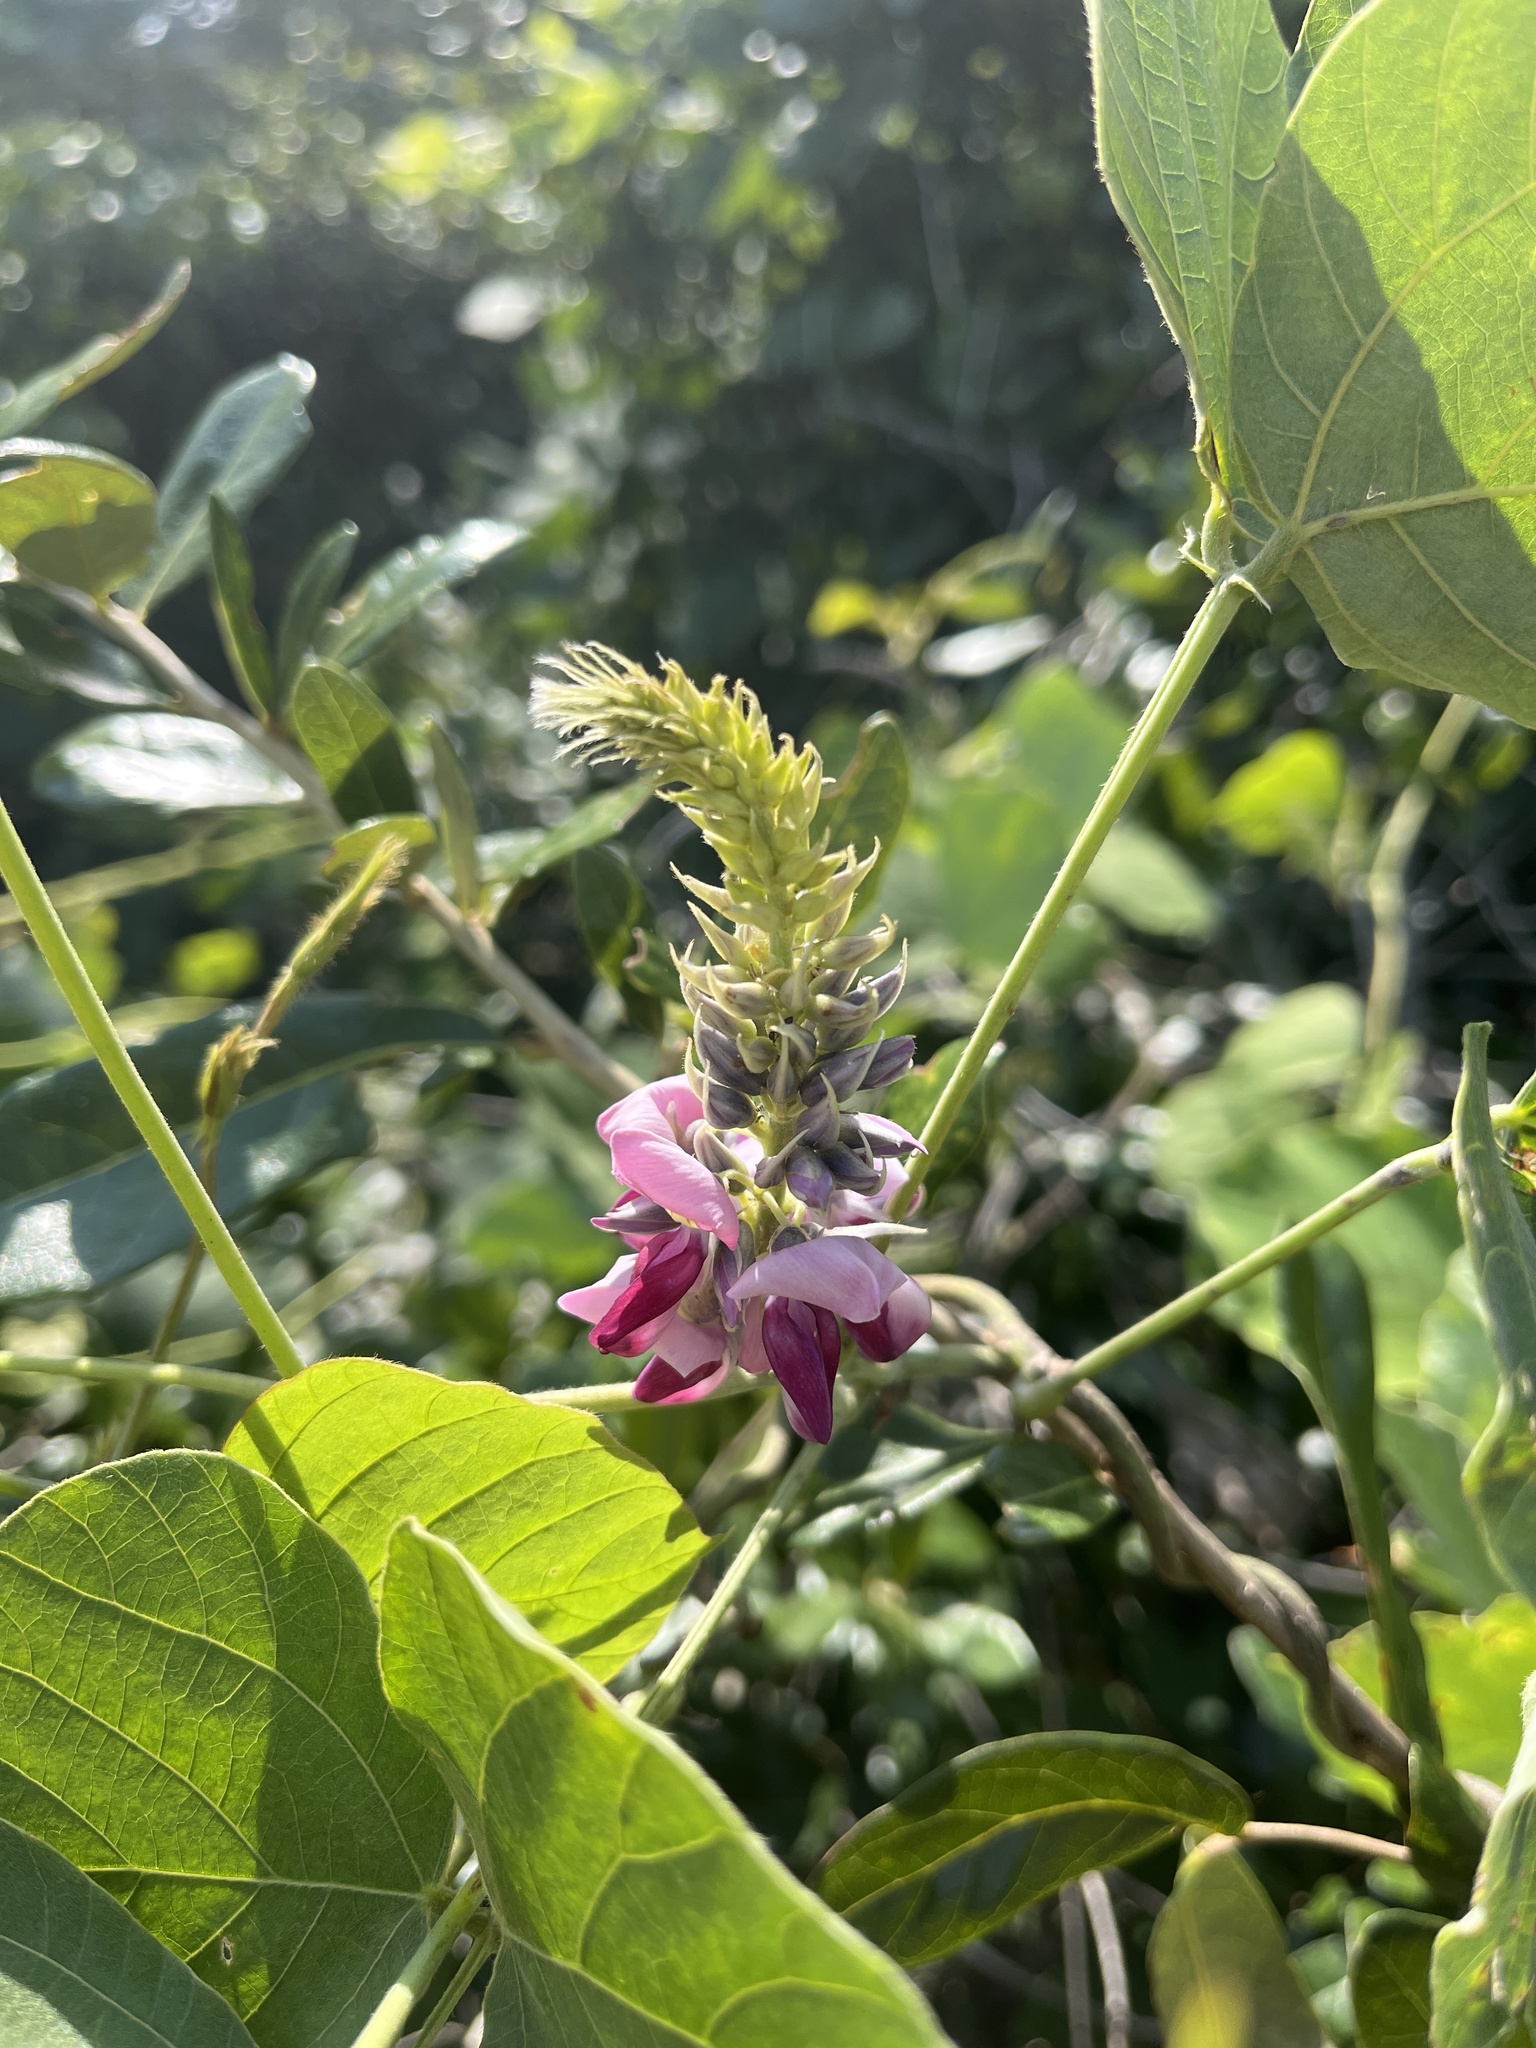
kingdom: Plantae
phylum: Tracheophyta
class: Magnoliopsida
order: Fabales
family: Fabaceae
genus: Pueraria
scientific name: Pueraria montana
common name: Kudzu
